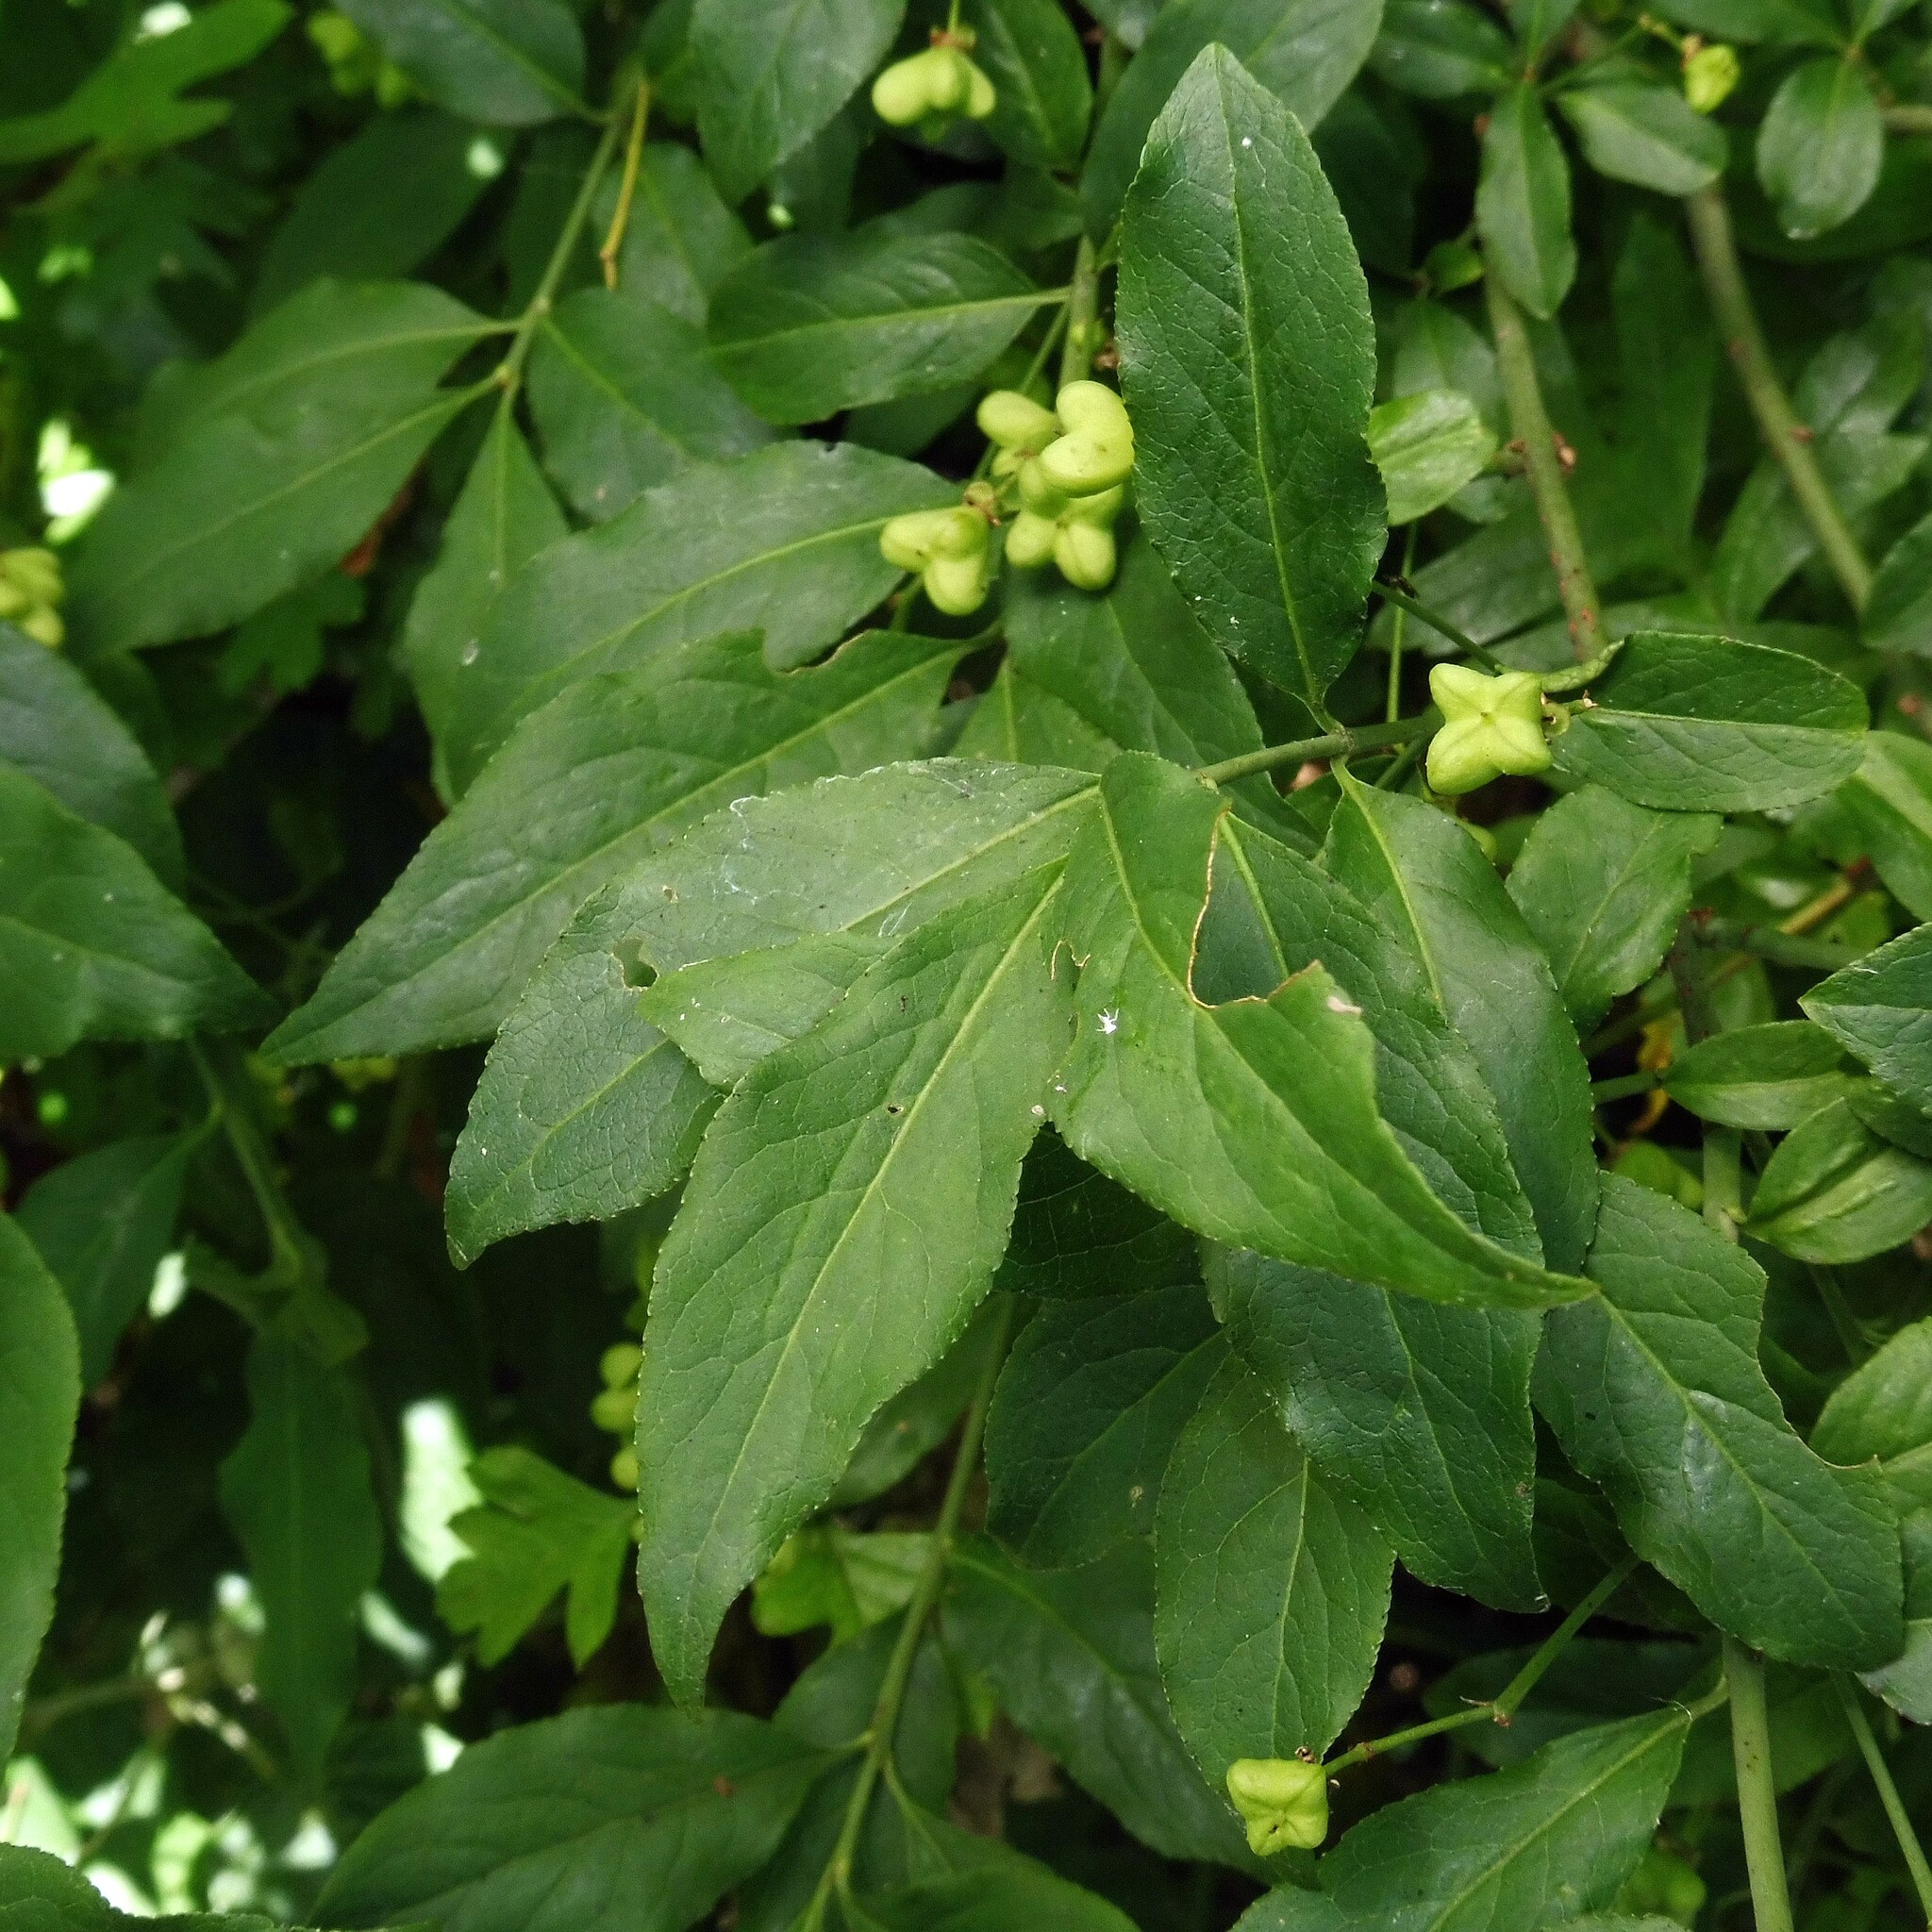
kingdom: Plantae
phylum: Tracheophyta
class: Magnoliopsida
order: Celastrales
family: Celastraceae
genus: Euonymus
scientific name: Euonymus europaeus
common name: Spindle
